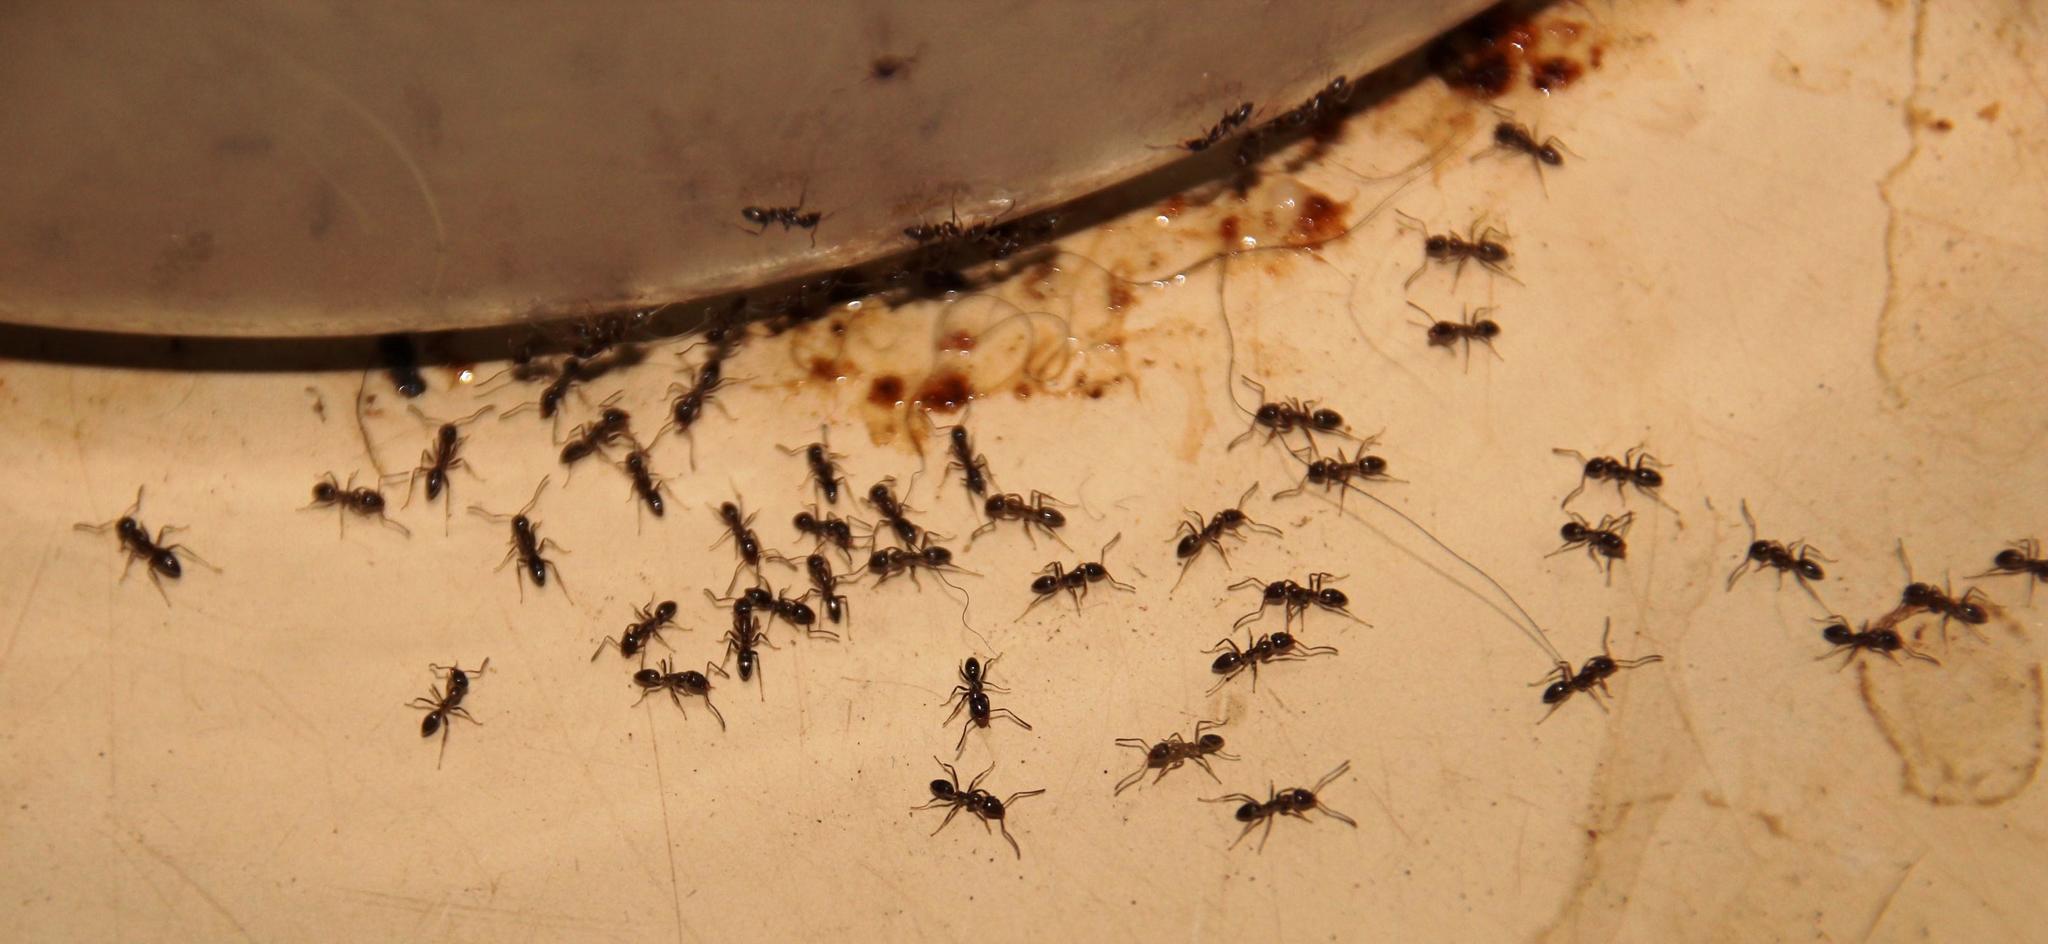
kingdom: Animalia
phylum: Arthropoda
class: Insecta
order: Hymenoptera
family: Formicidae
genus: Linepithema
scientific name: Linepithema humile
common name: Argentine ant
